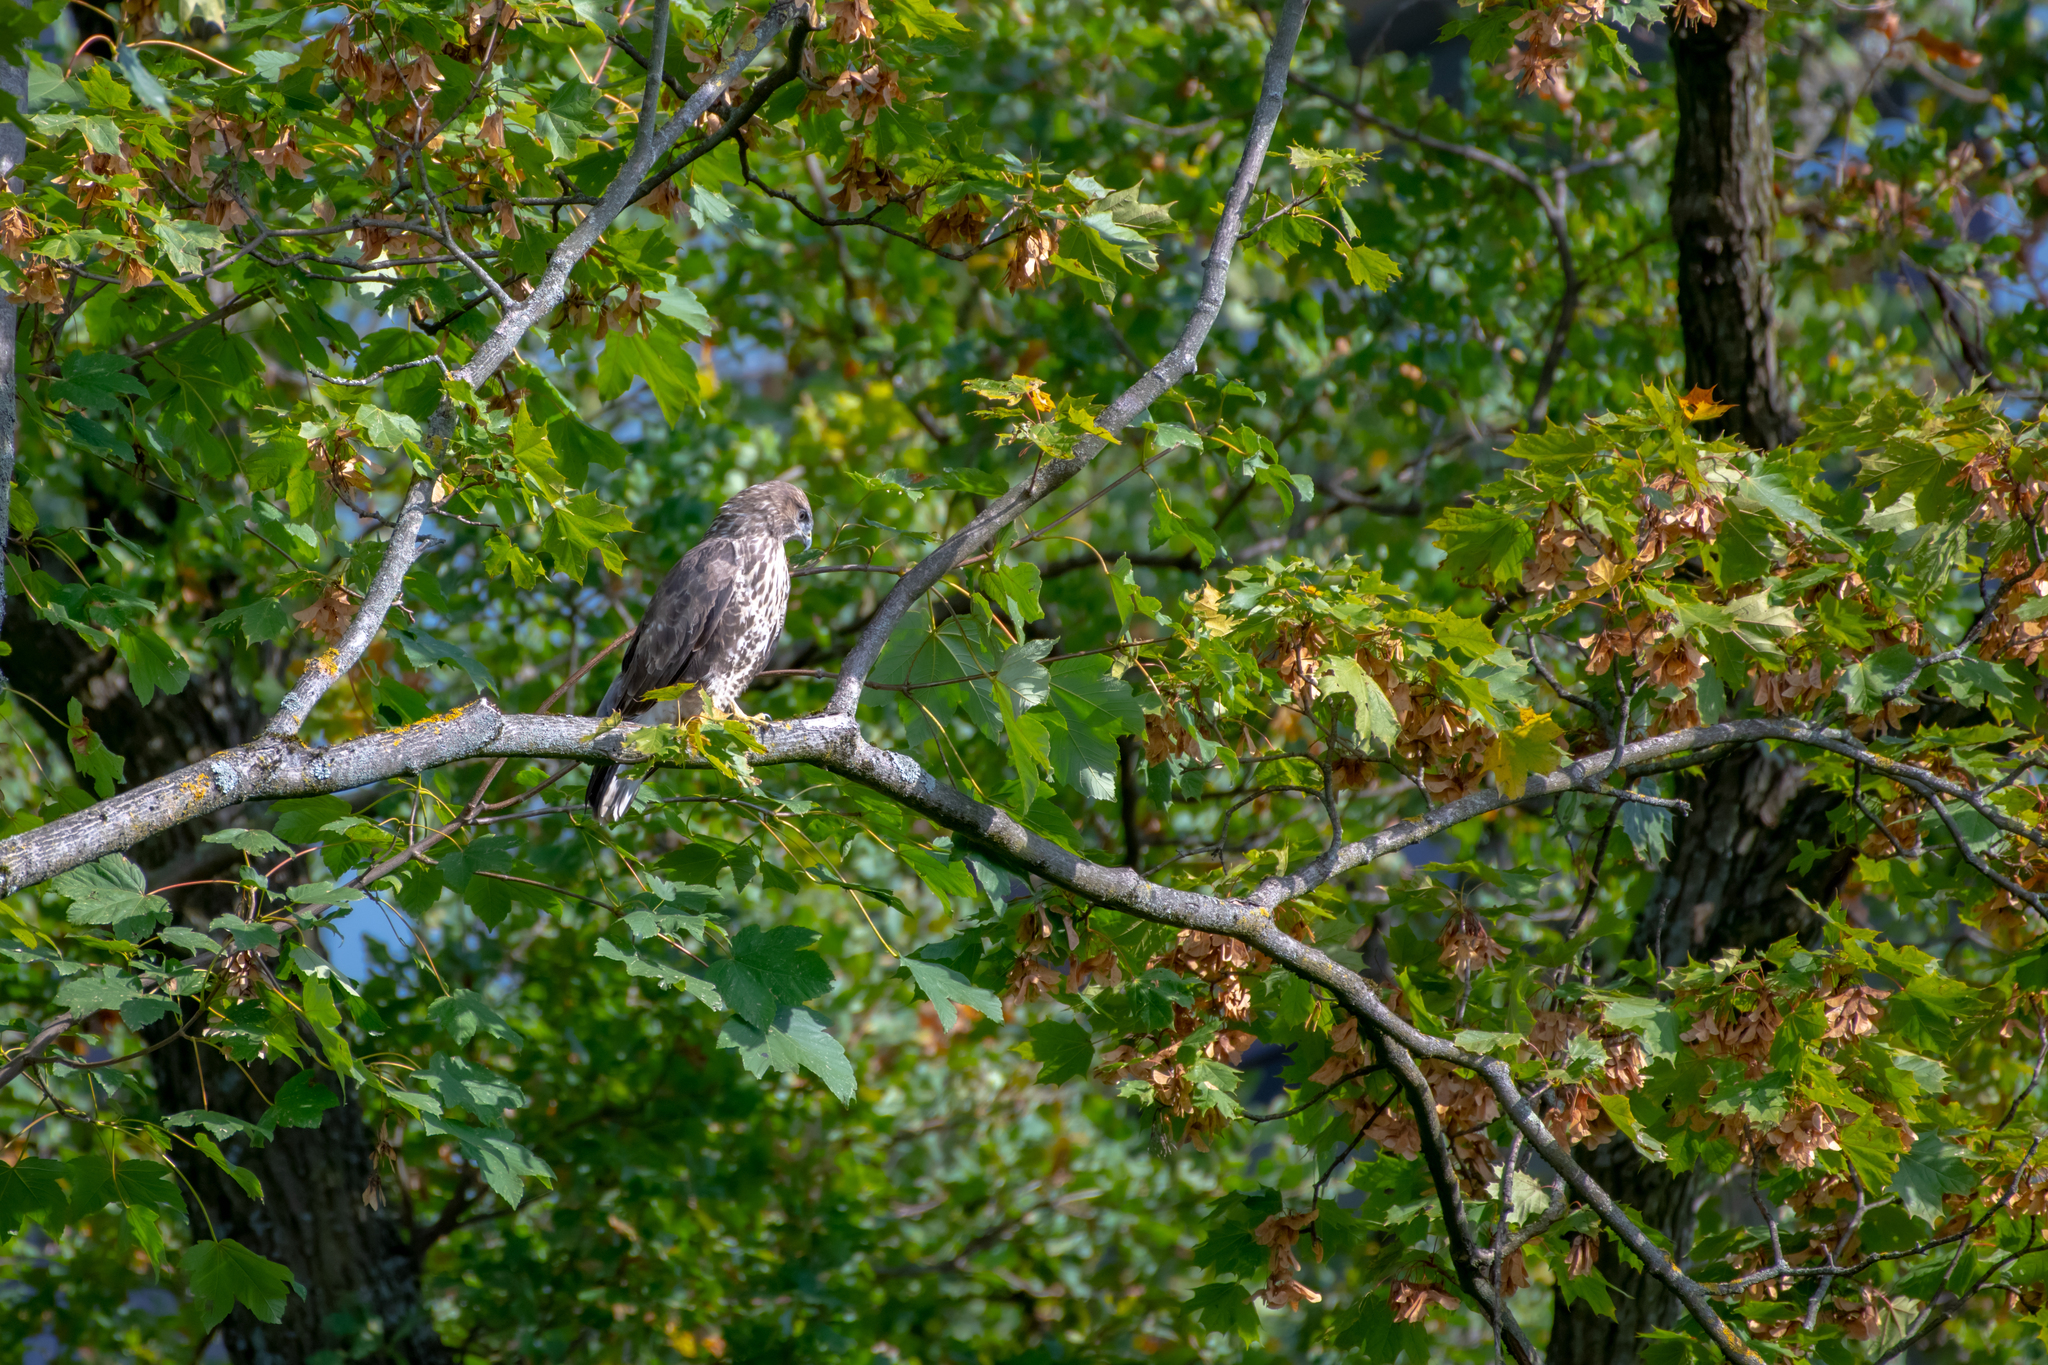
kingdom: Animalia
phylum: Chordata
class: Aves
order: Accipitriformes
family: Accipitridae
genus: Buteo
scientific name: Buteo buteo
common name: Common buzzard
